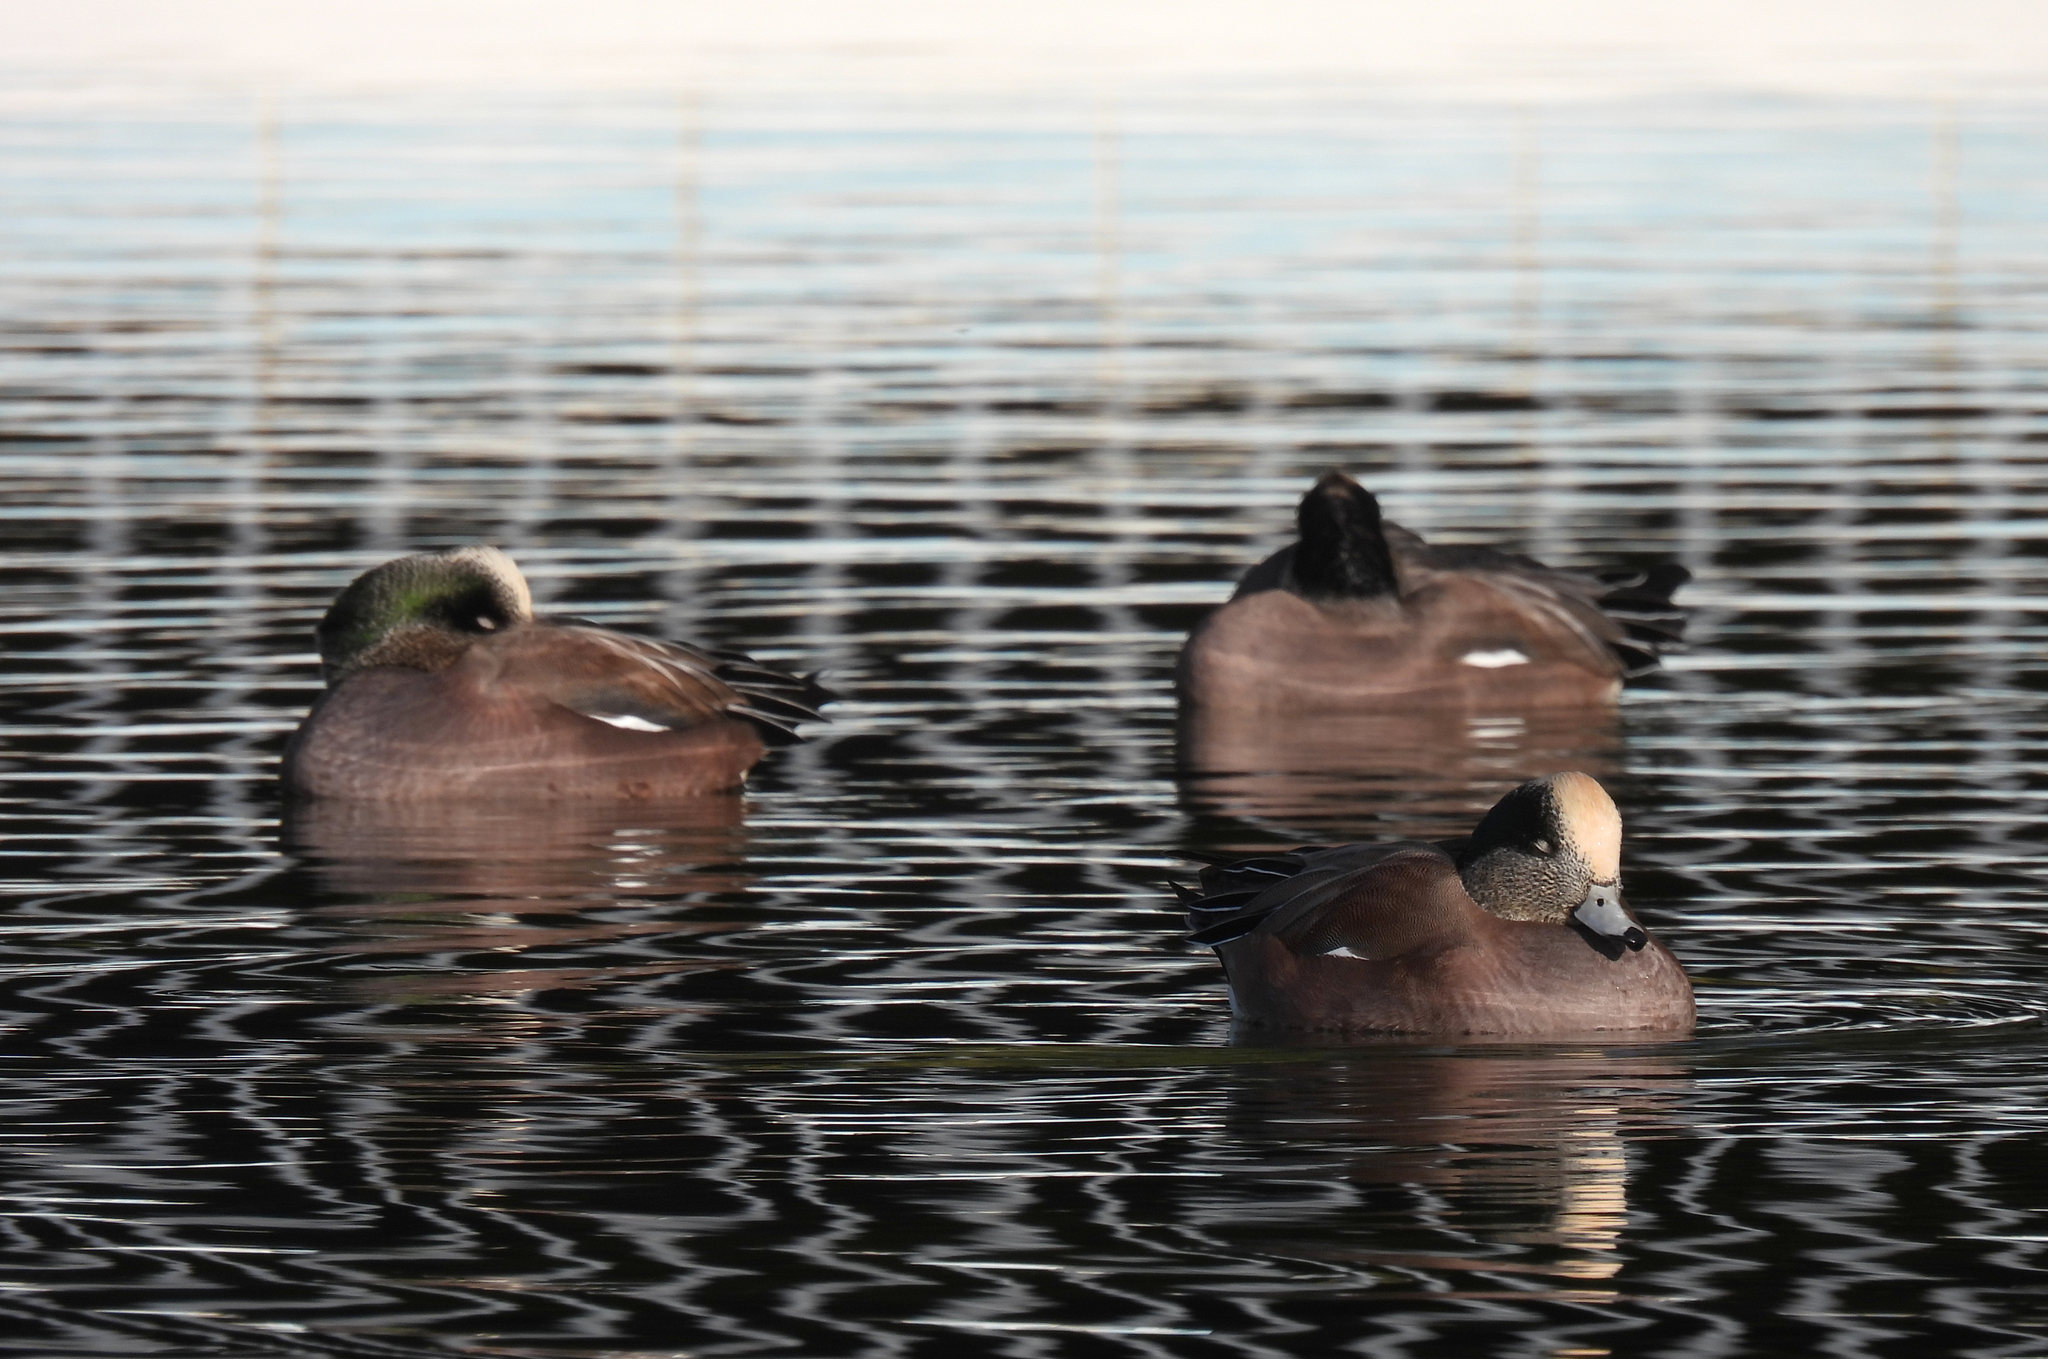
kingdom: Animalia
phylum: Chordata
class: Aves
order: Anseriformes
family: Anatidae
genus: Mareca
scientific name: Mareca americana
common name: American wigeon
